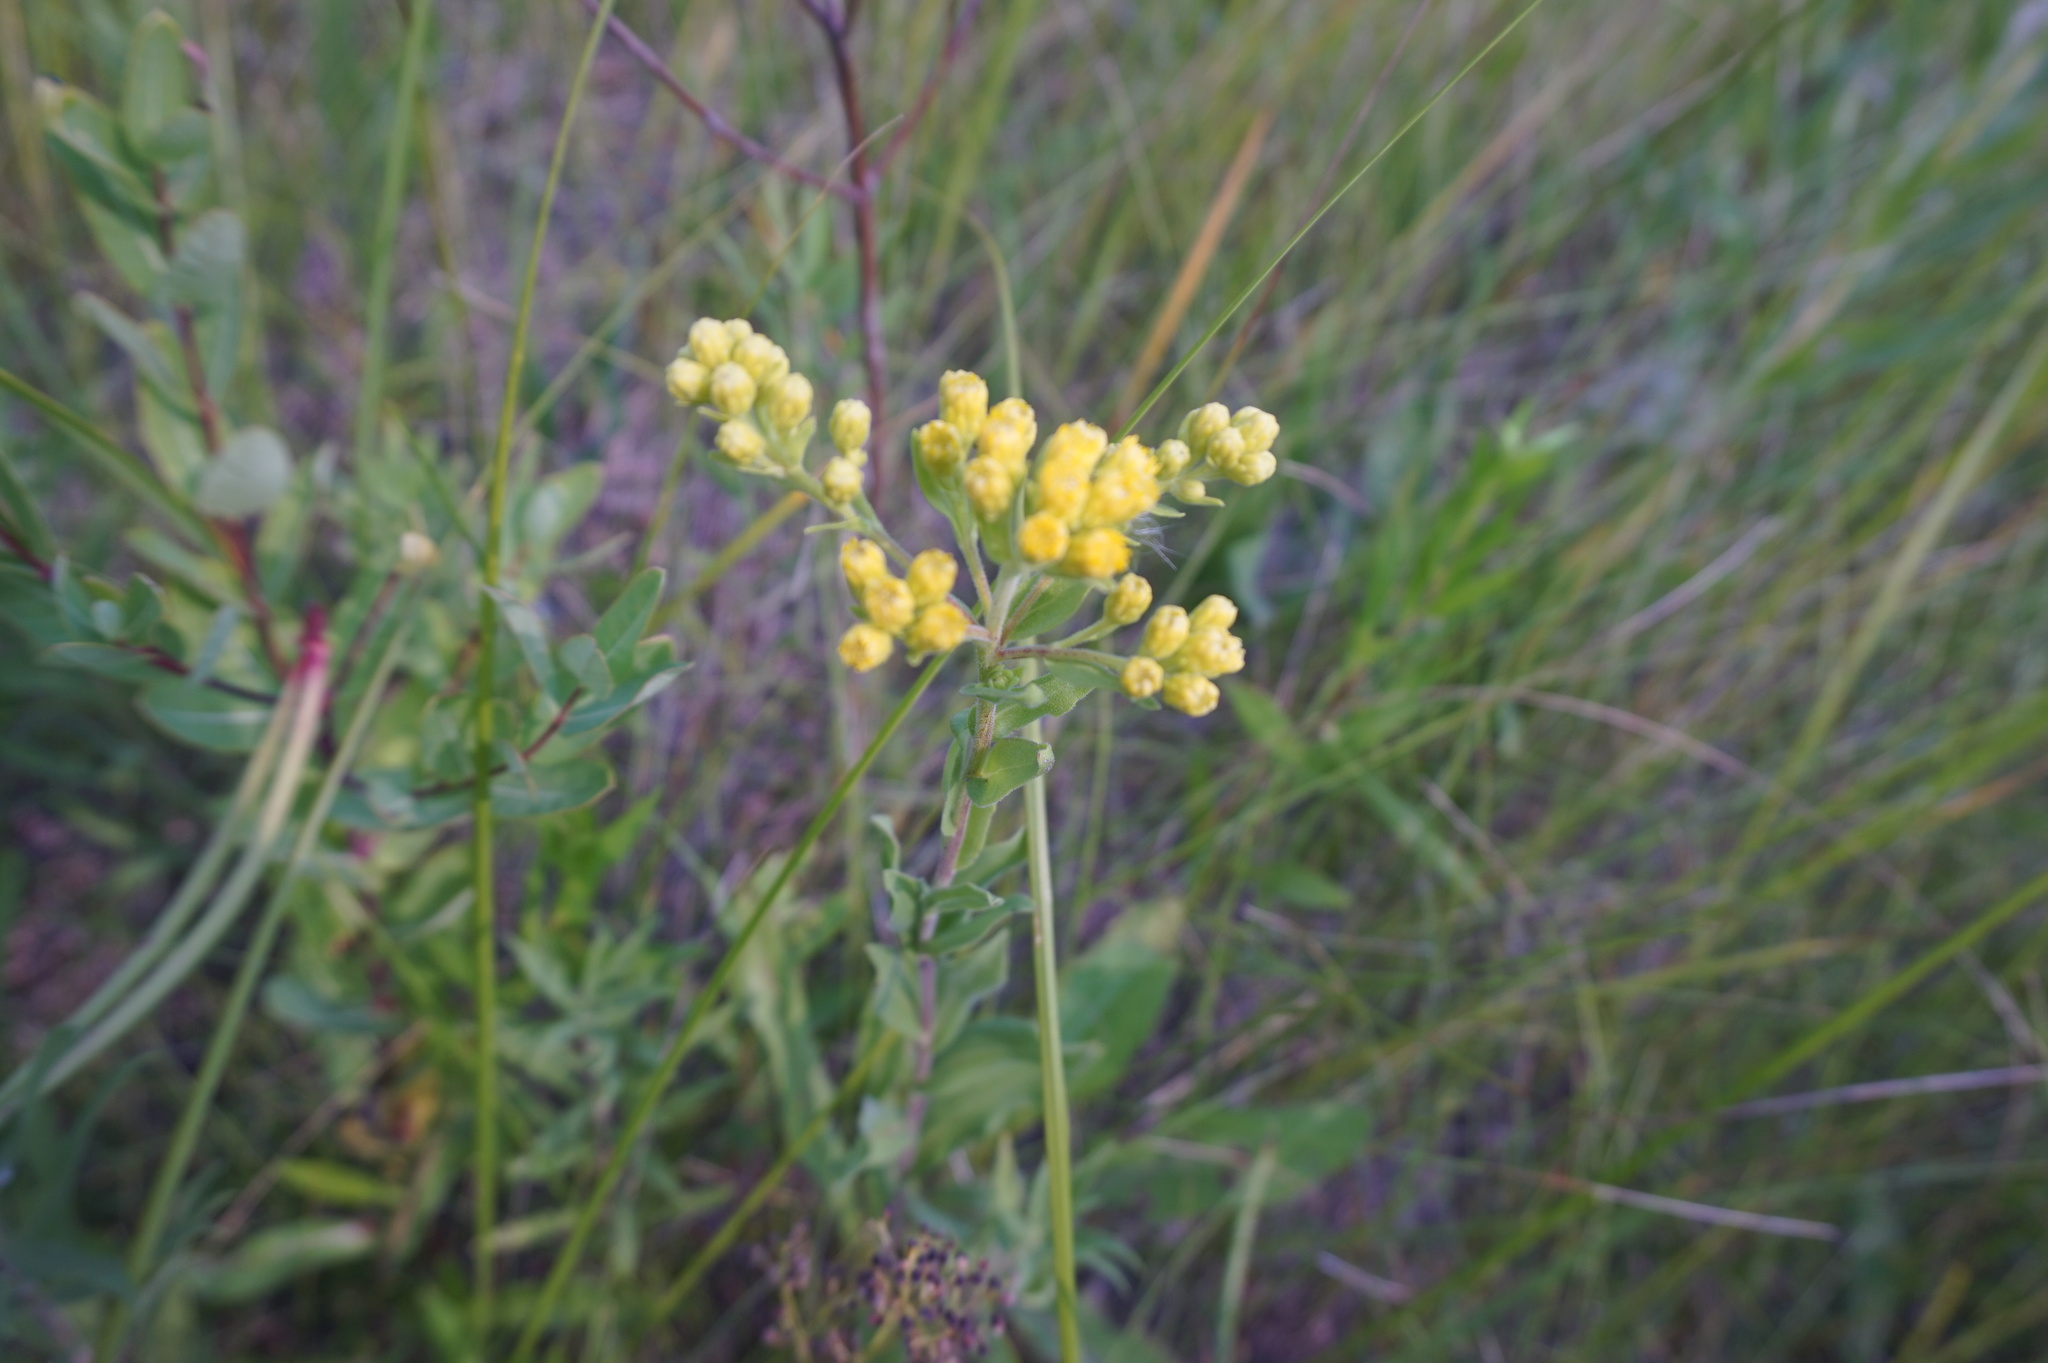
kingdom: Plantae
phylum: Tracheophyta
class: Magnoliopsida
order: Asterales
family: Asteraceae
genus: Solidago
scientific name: Solidago rigida
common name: Rigid goldenrod
